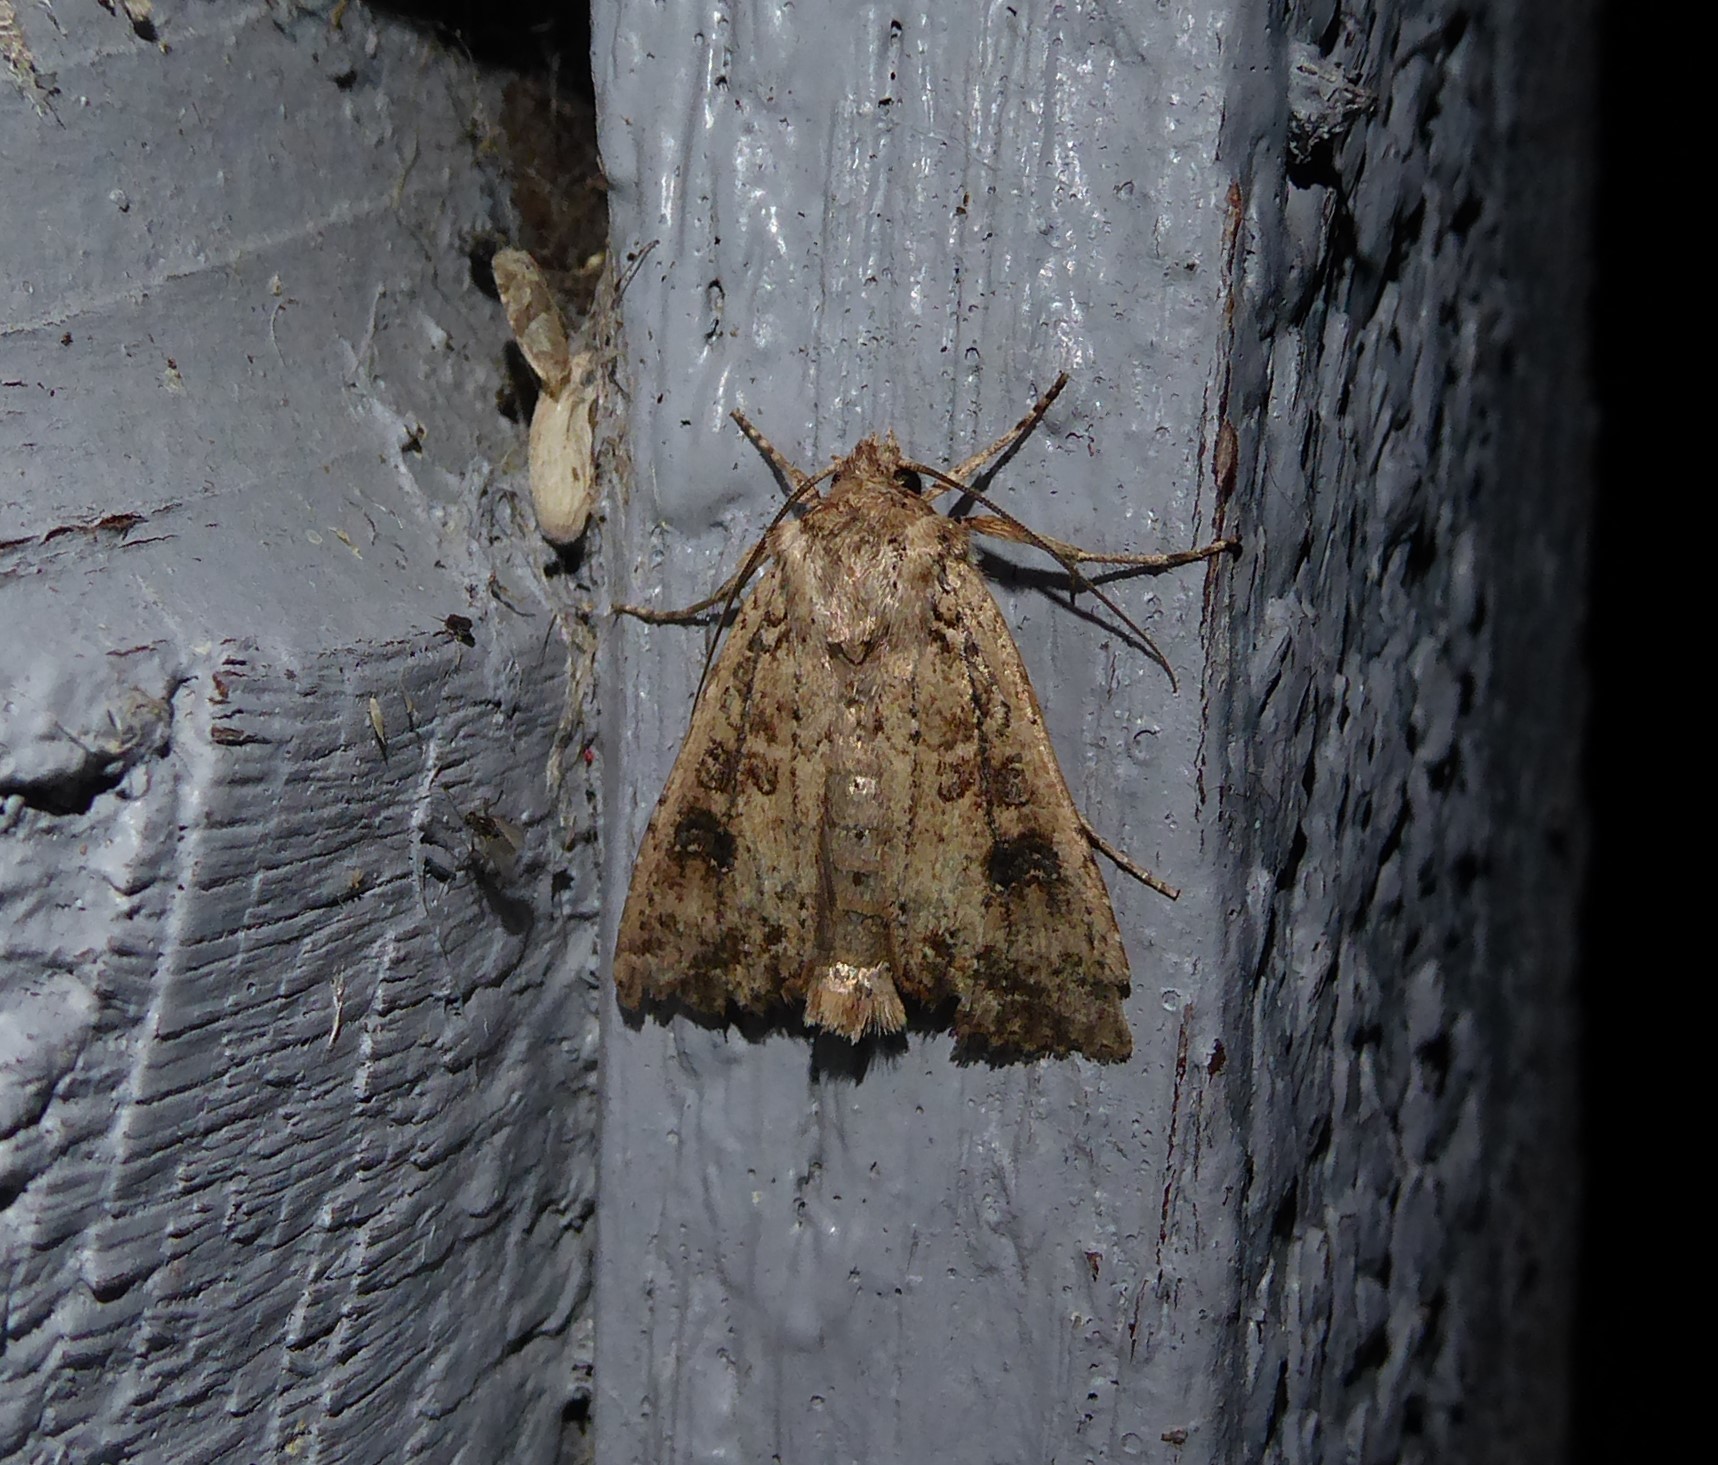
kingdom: Animalia
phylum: Arthropoda
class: Insecta
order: Lepidoptera
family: Noctuidae
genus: Ichneutica
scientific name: Ichneutica morosa
